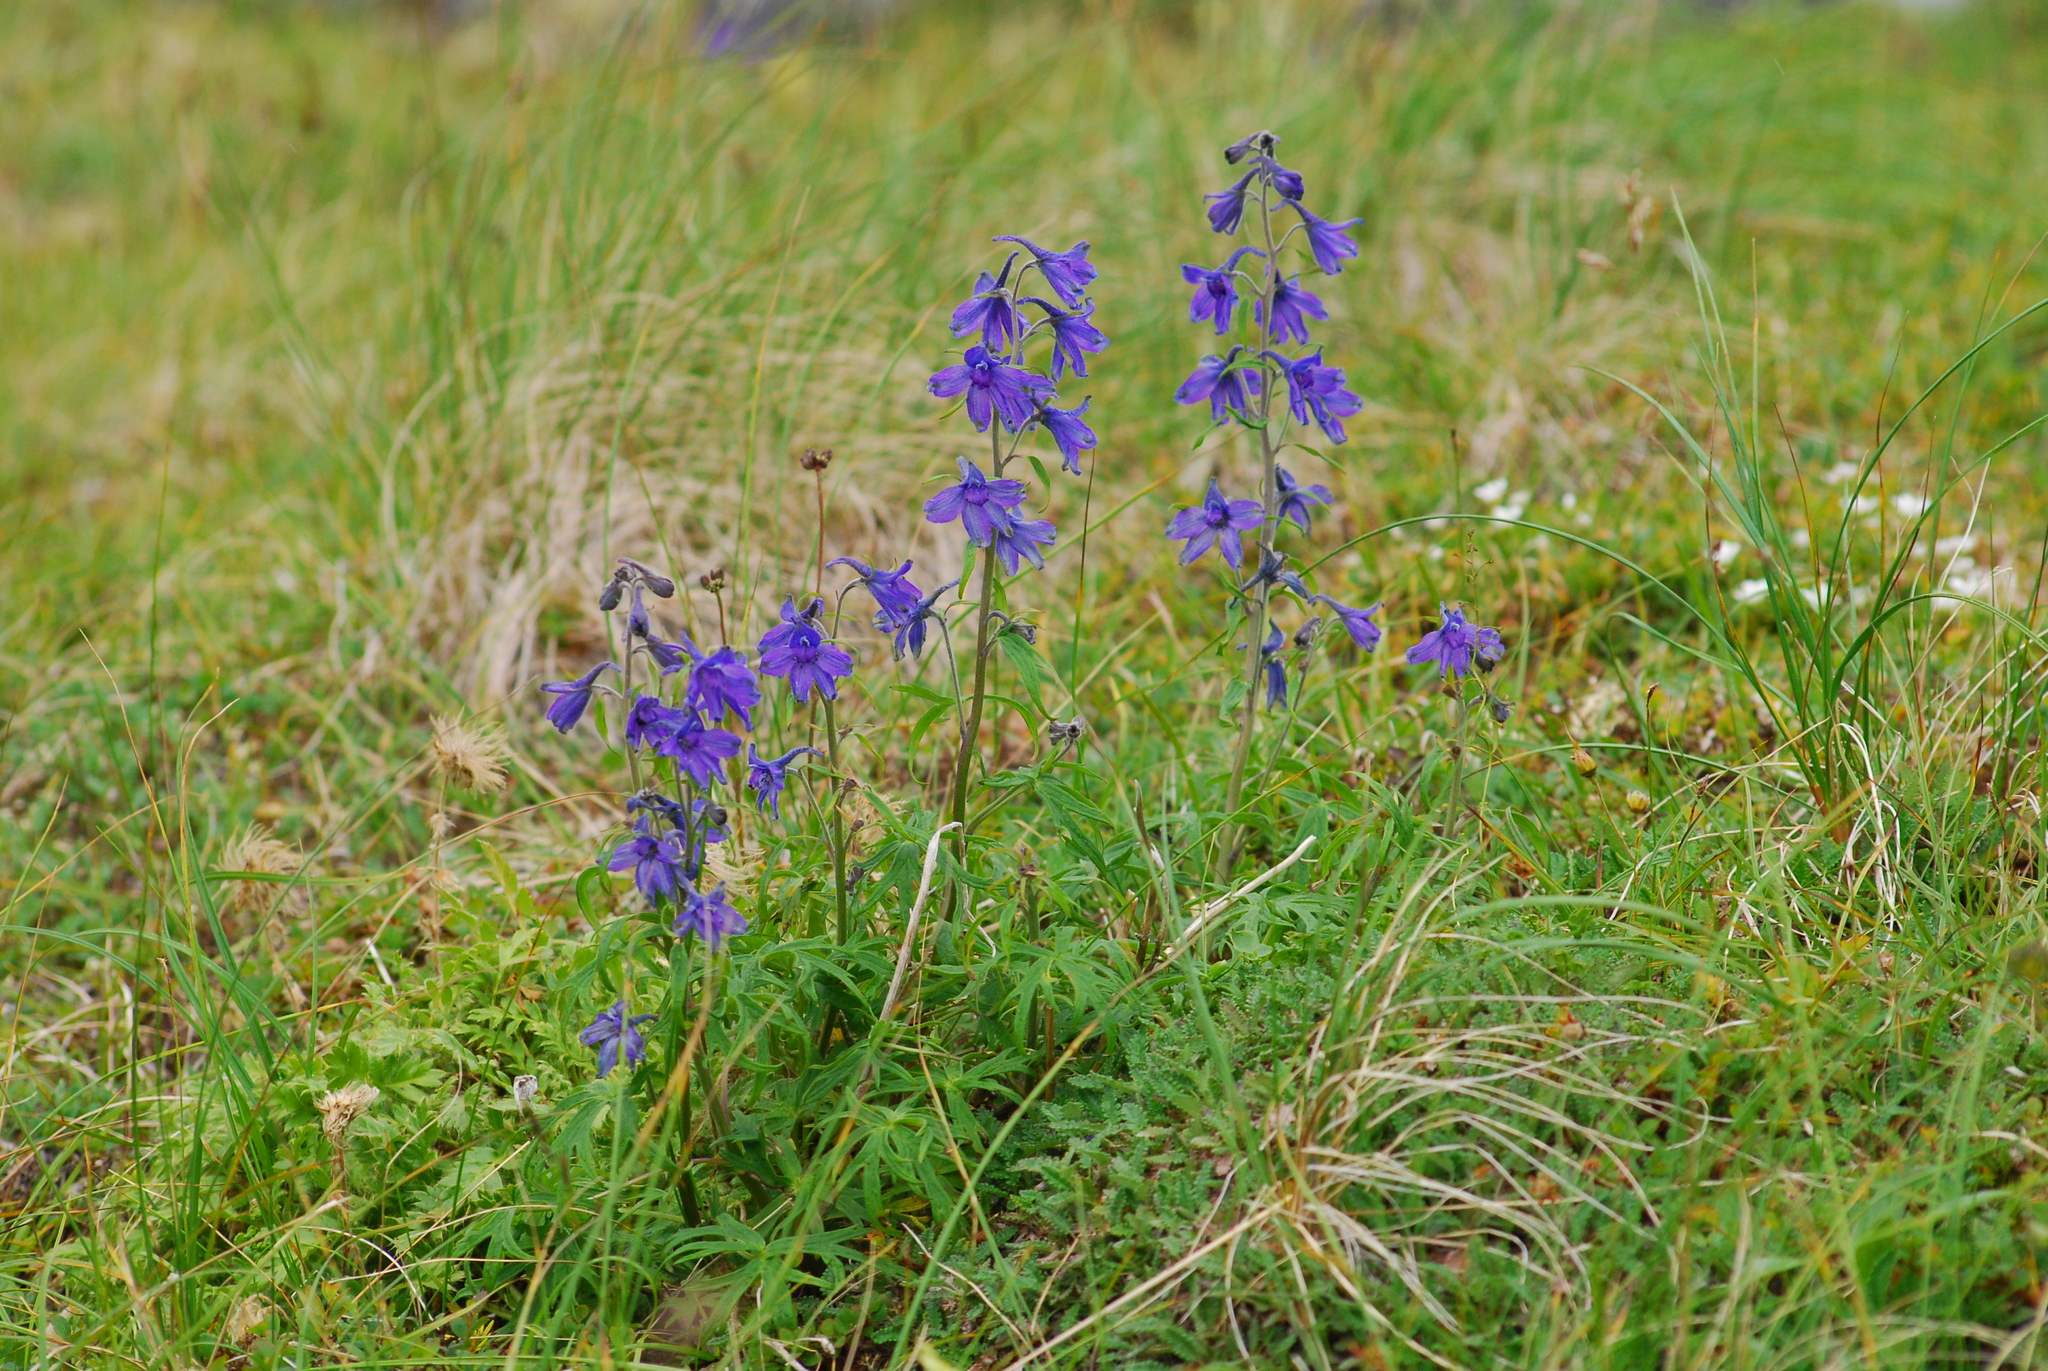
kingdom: Plantae
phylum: Tracheophyta
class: Magnoliopsida
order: Ranunculales
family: Ranunculaceae
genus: Delphinium
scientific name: Delphinium chamissonis
